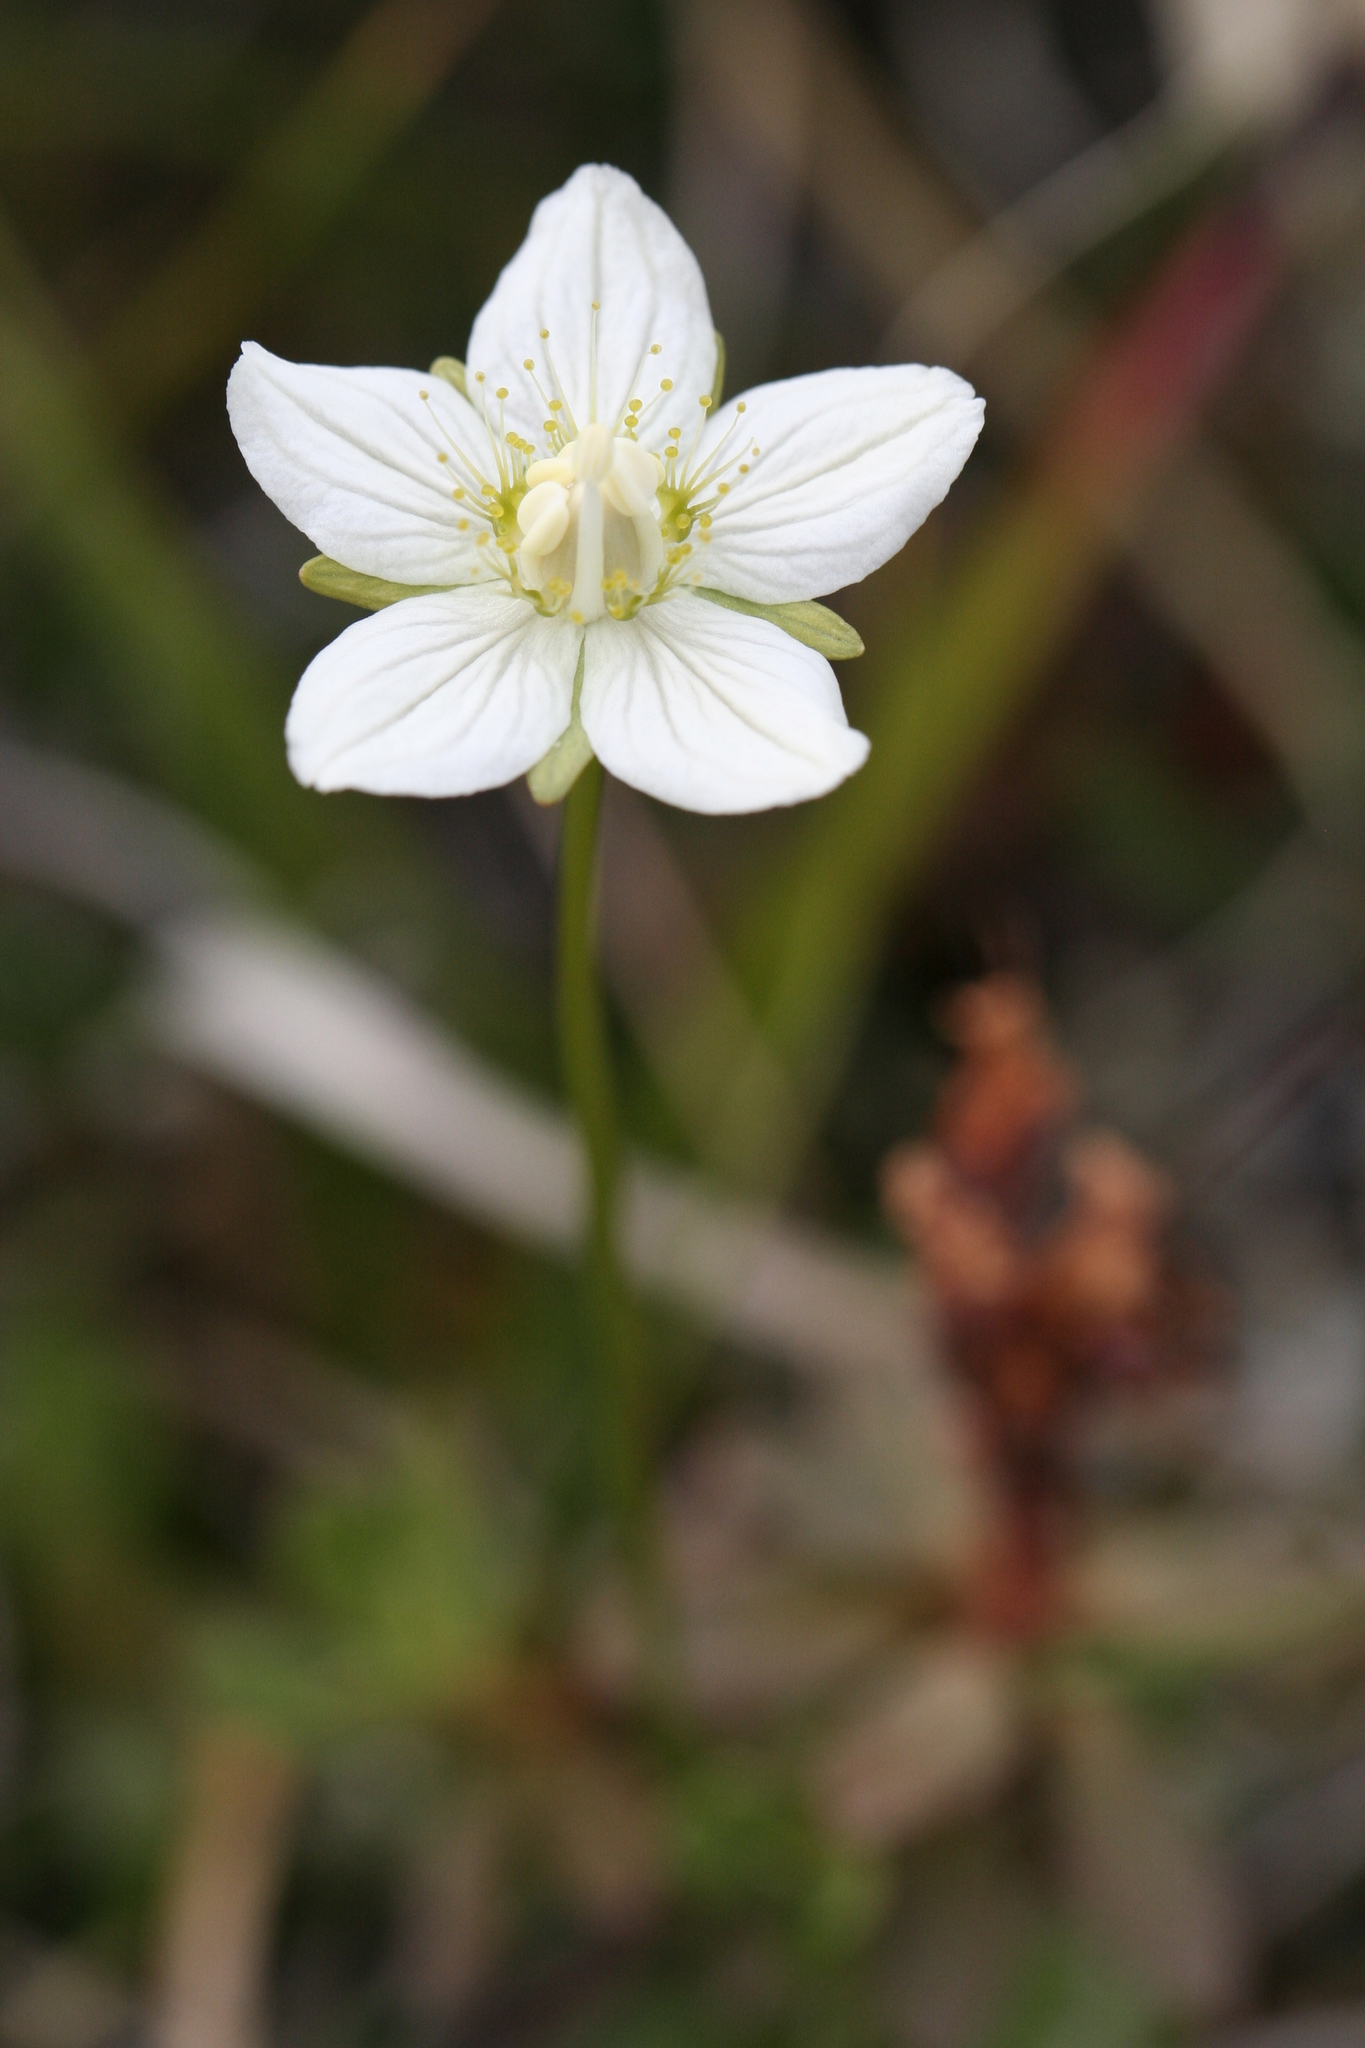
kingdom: Plantae
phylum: Tracheophyta
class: Magnoliopsida
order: Celastrales
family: Parnassiaceae
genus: Parnassia
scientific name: Parnassia palustris
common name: Grass-of-parnassus
